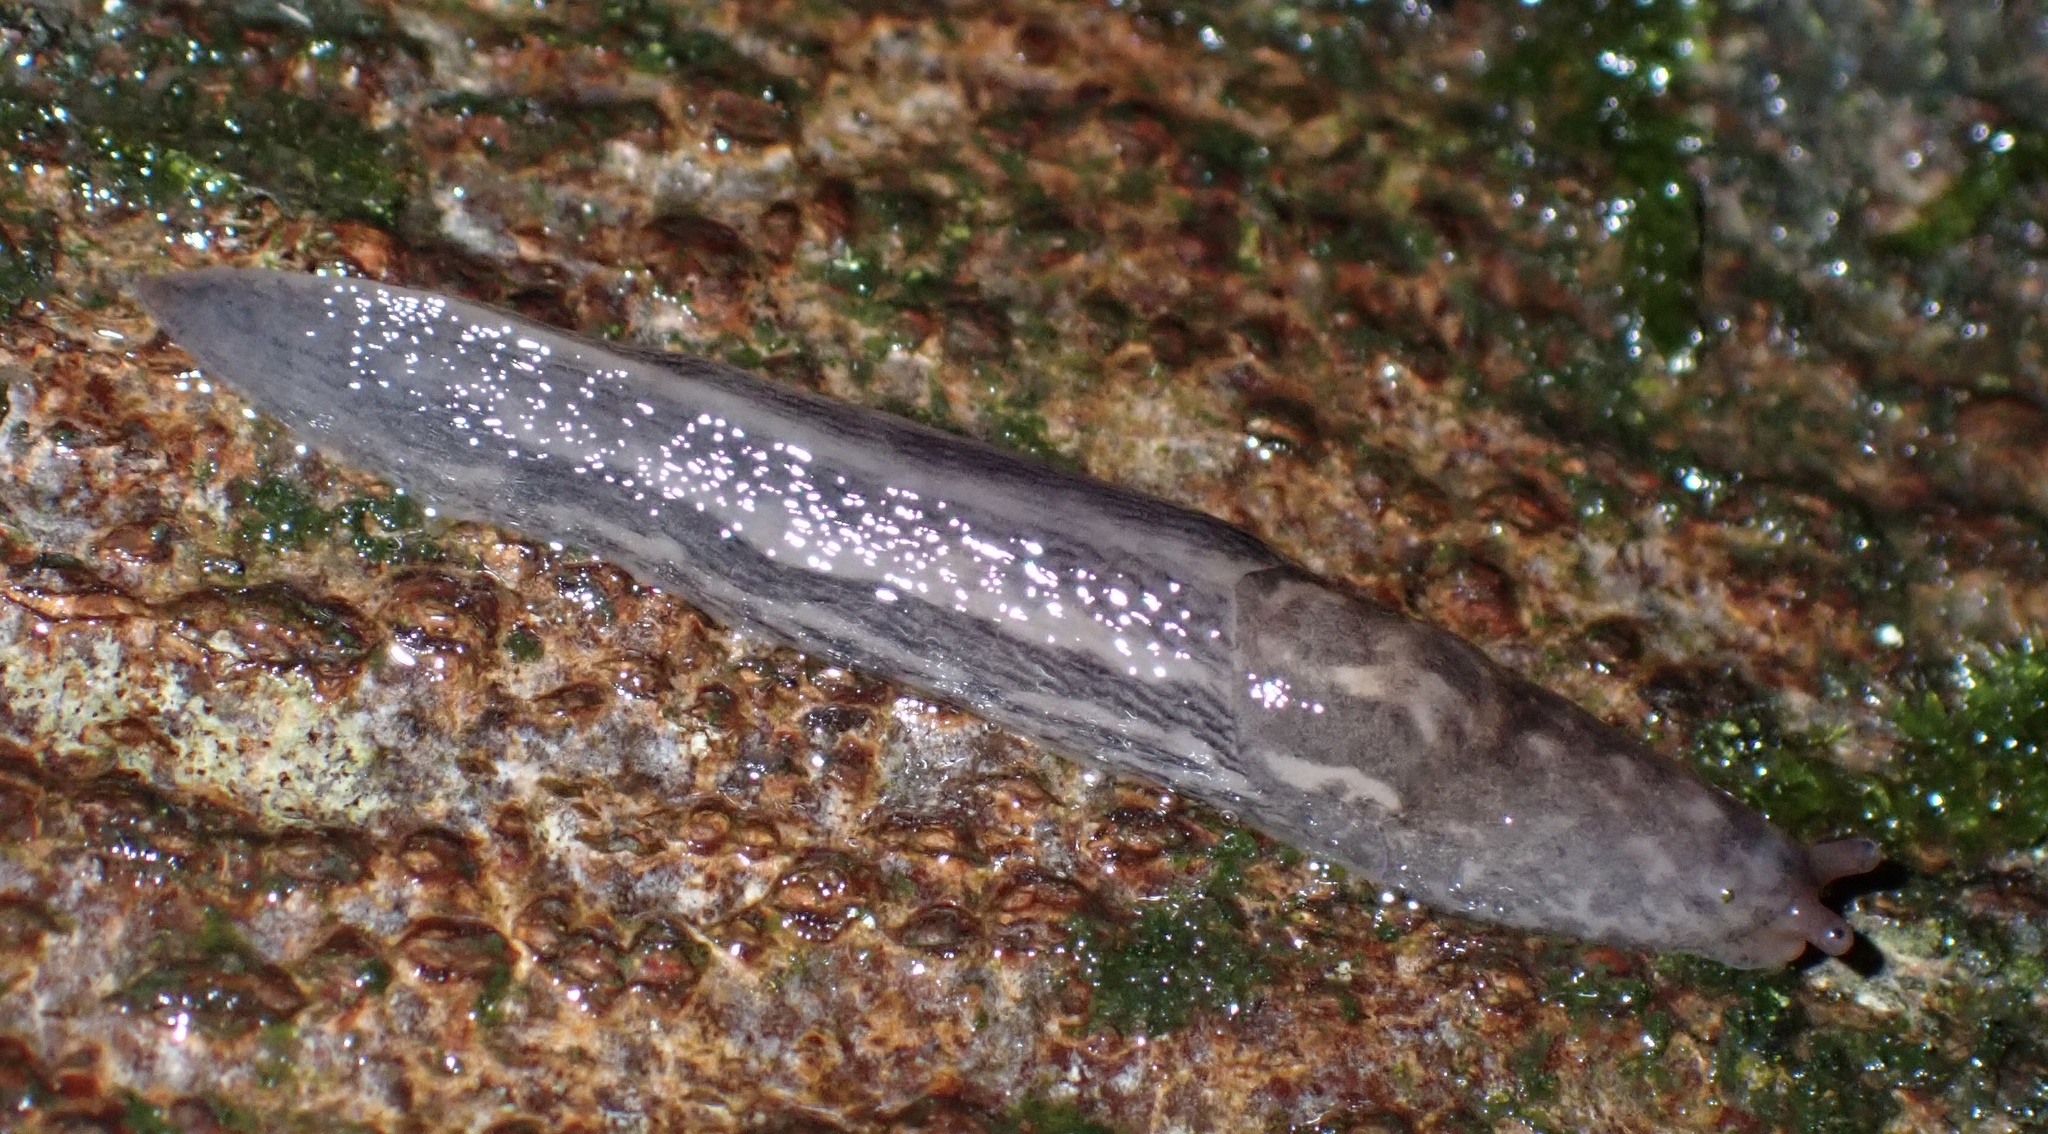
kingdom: Animalia
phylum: Mollusca
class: Gastropoda
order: Stylommatophora
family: Limacidae
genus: Limax
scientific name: Limax maximus
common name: Great grey slug
